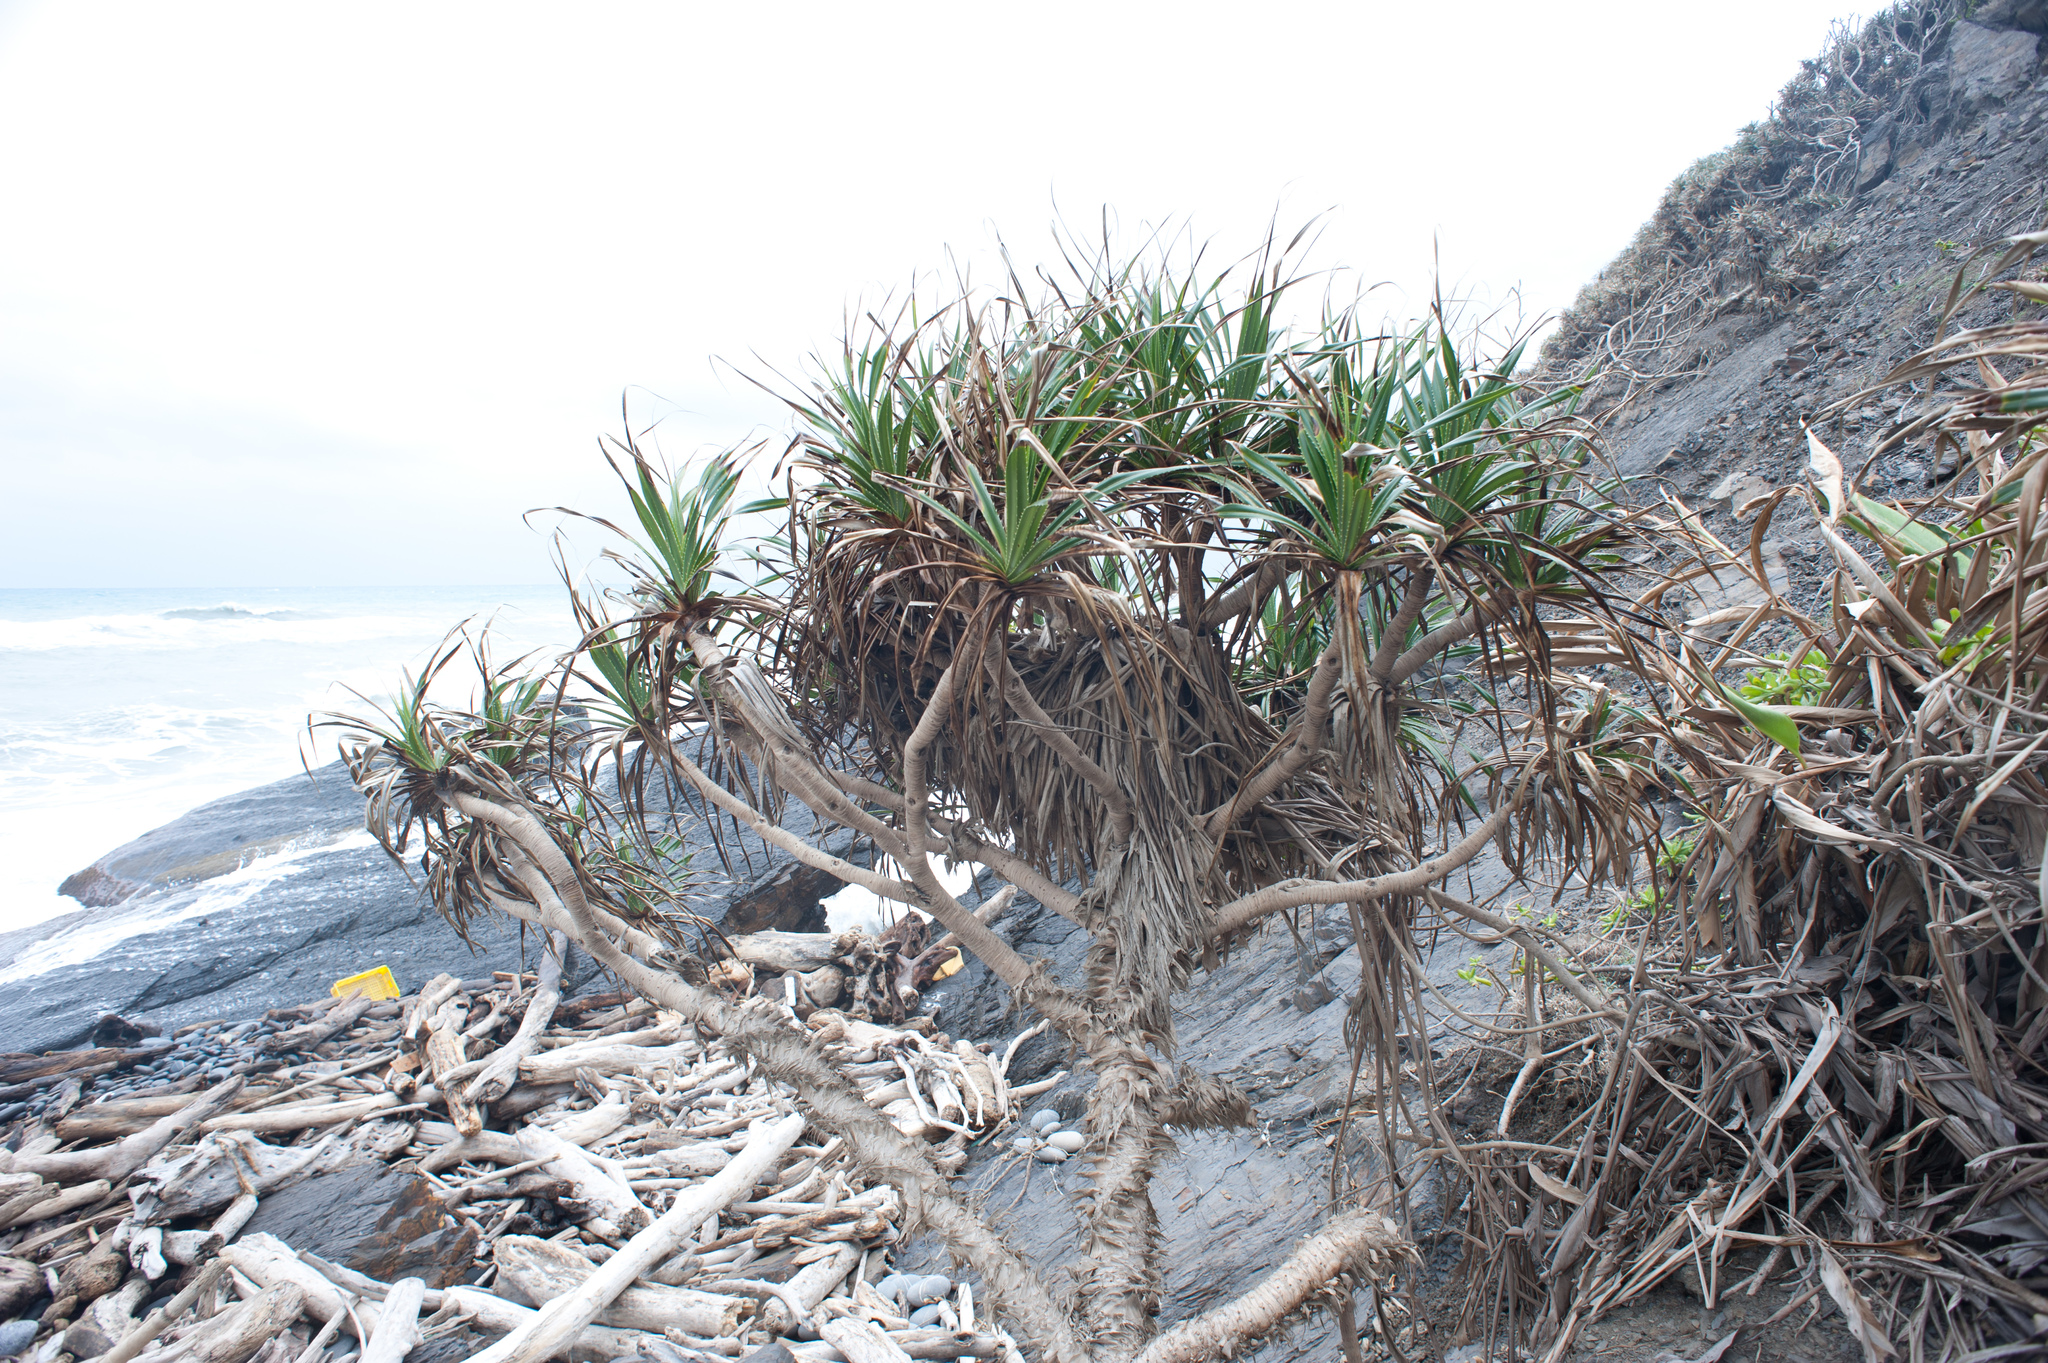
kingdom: Plantae
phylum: Tracheophyta
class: Liliopsida
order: Pandanales
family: Pandanaceae
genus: Pandanus
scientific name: Pandanus odorifer
